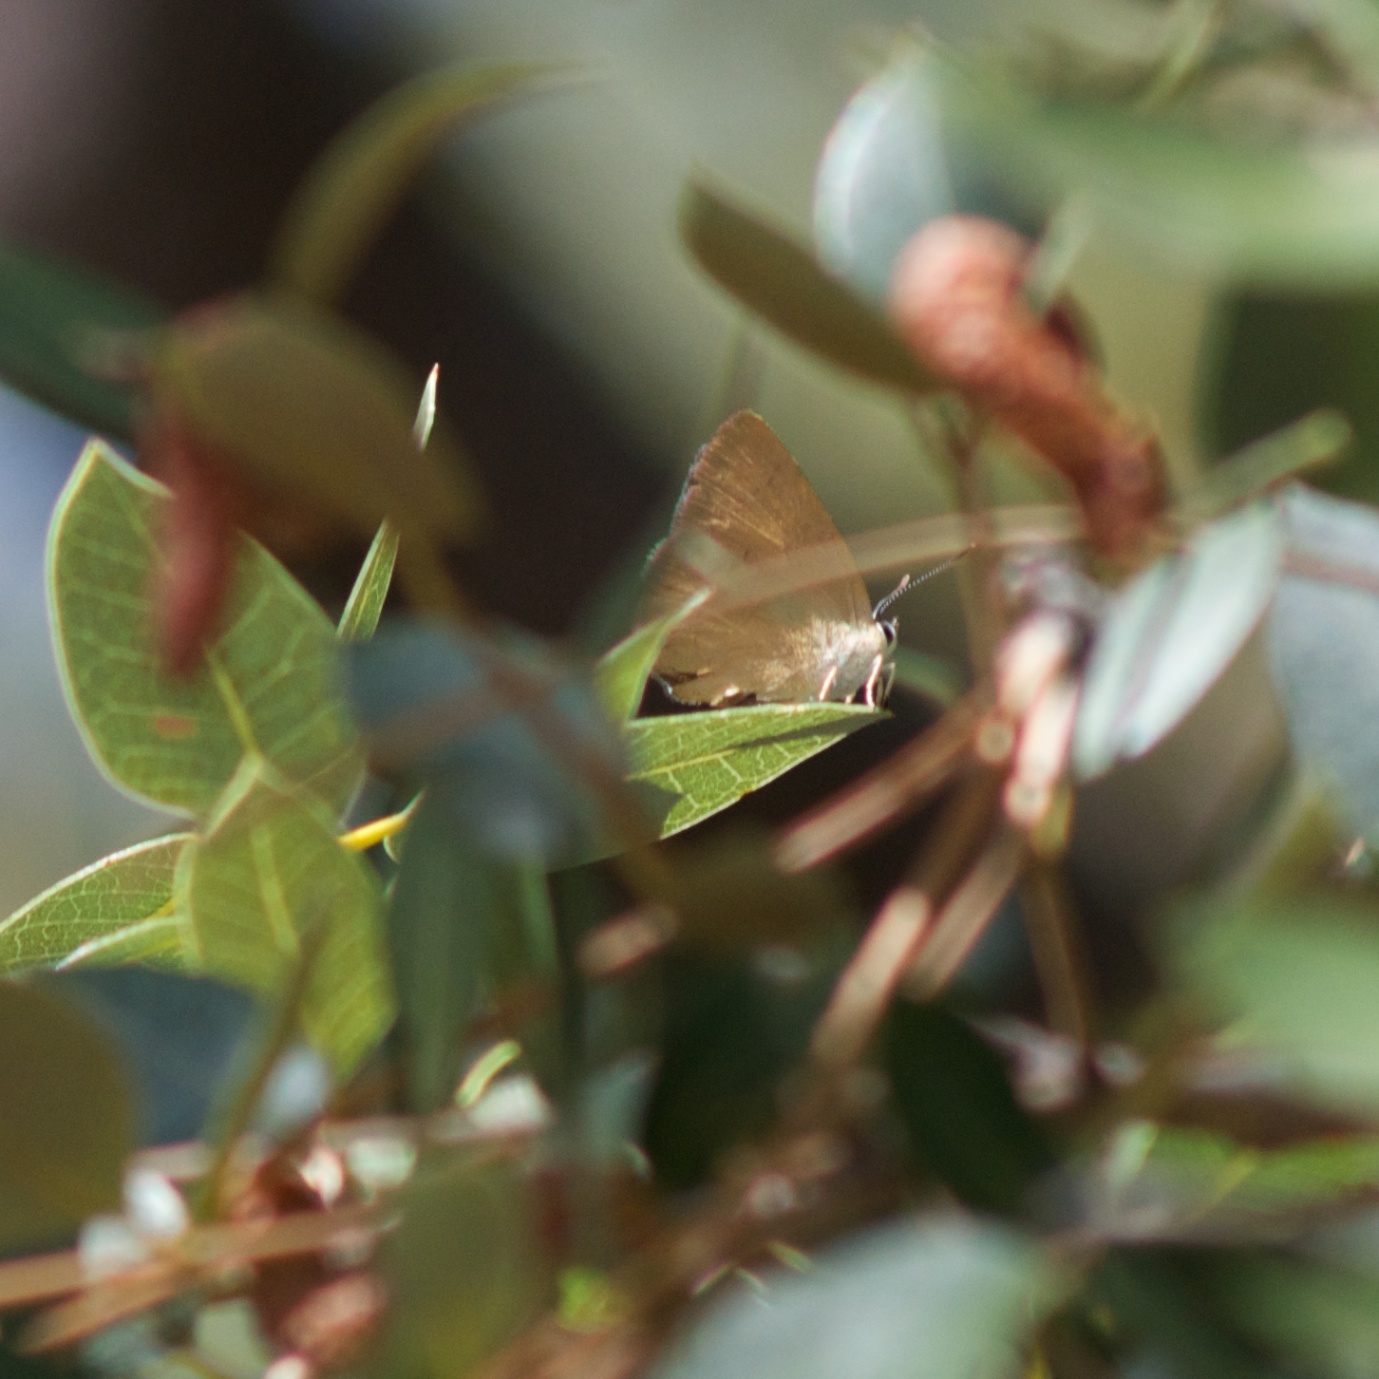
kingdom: Animalia
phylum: Arthropoda
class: Insecta
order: Lepidoptera
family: Lycaenidae
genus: Habrodais
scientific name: Habrodais grunus
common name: Golden hairstreak
